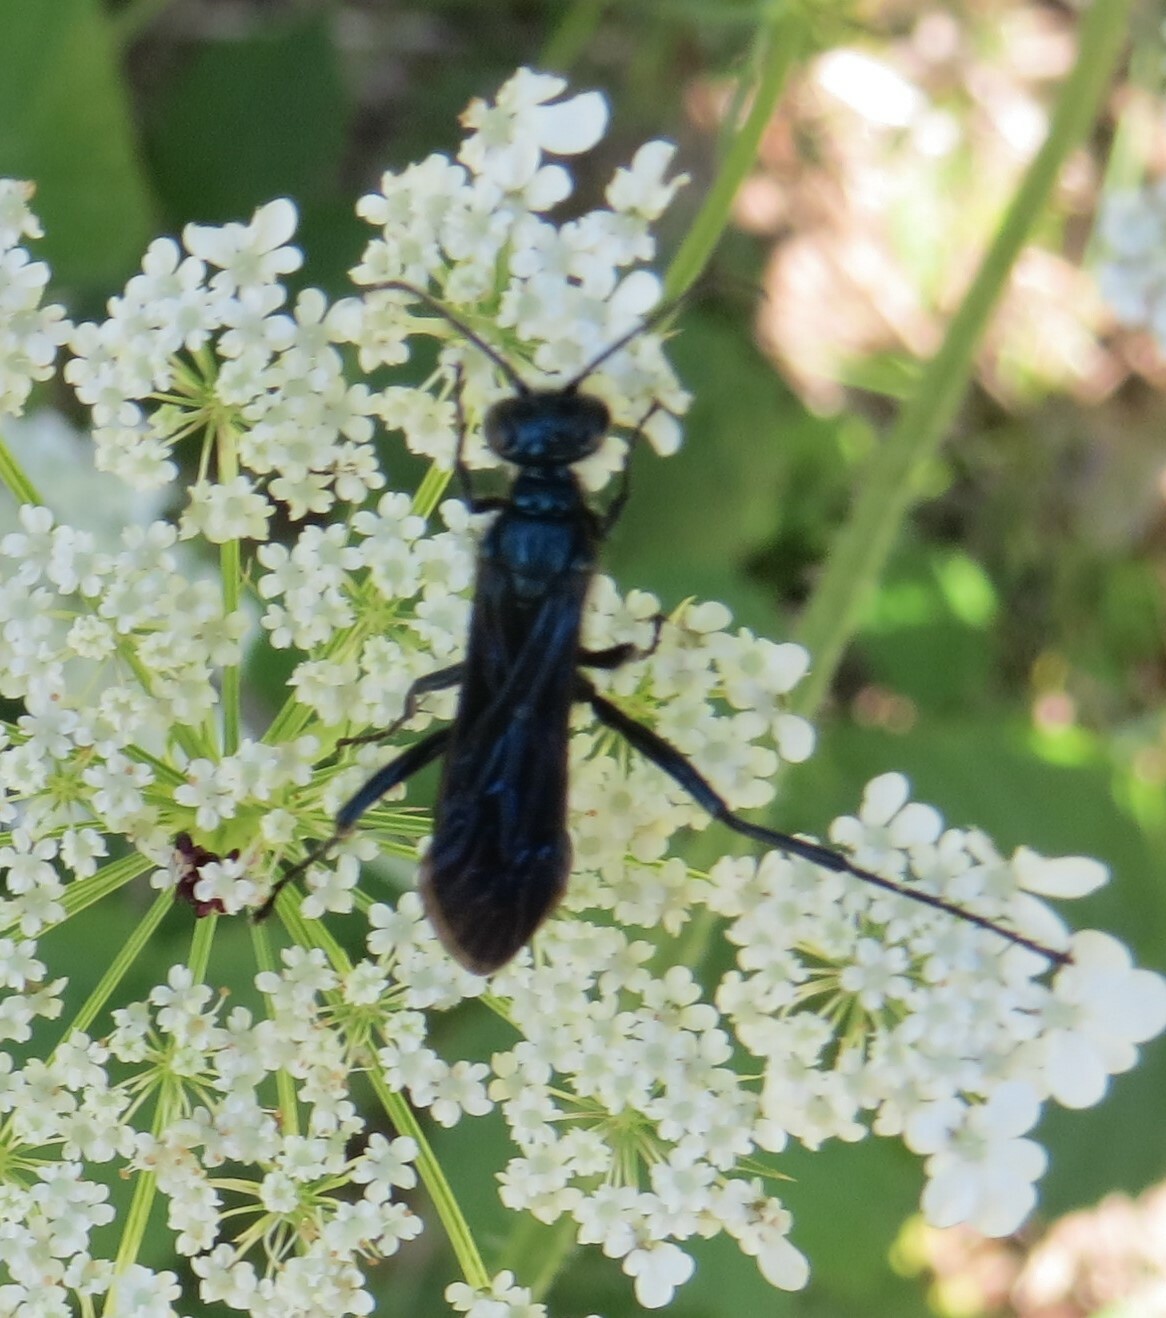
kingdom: Animalia
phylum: Arthropoda
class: Insecta
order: Hymenoptera
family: Sphecidae
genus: Chalybion
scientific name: Chalybion californicum
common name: Mud dauber
